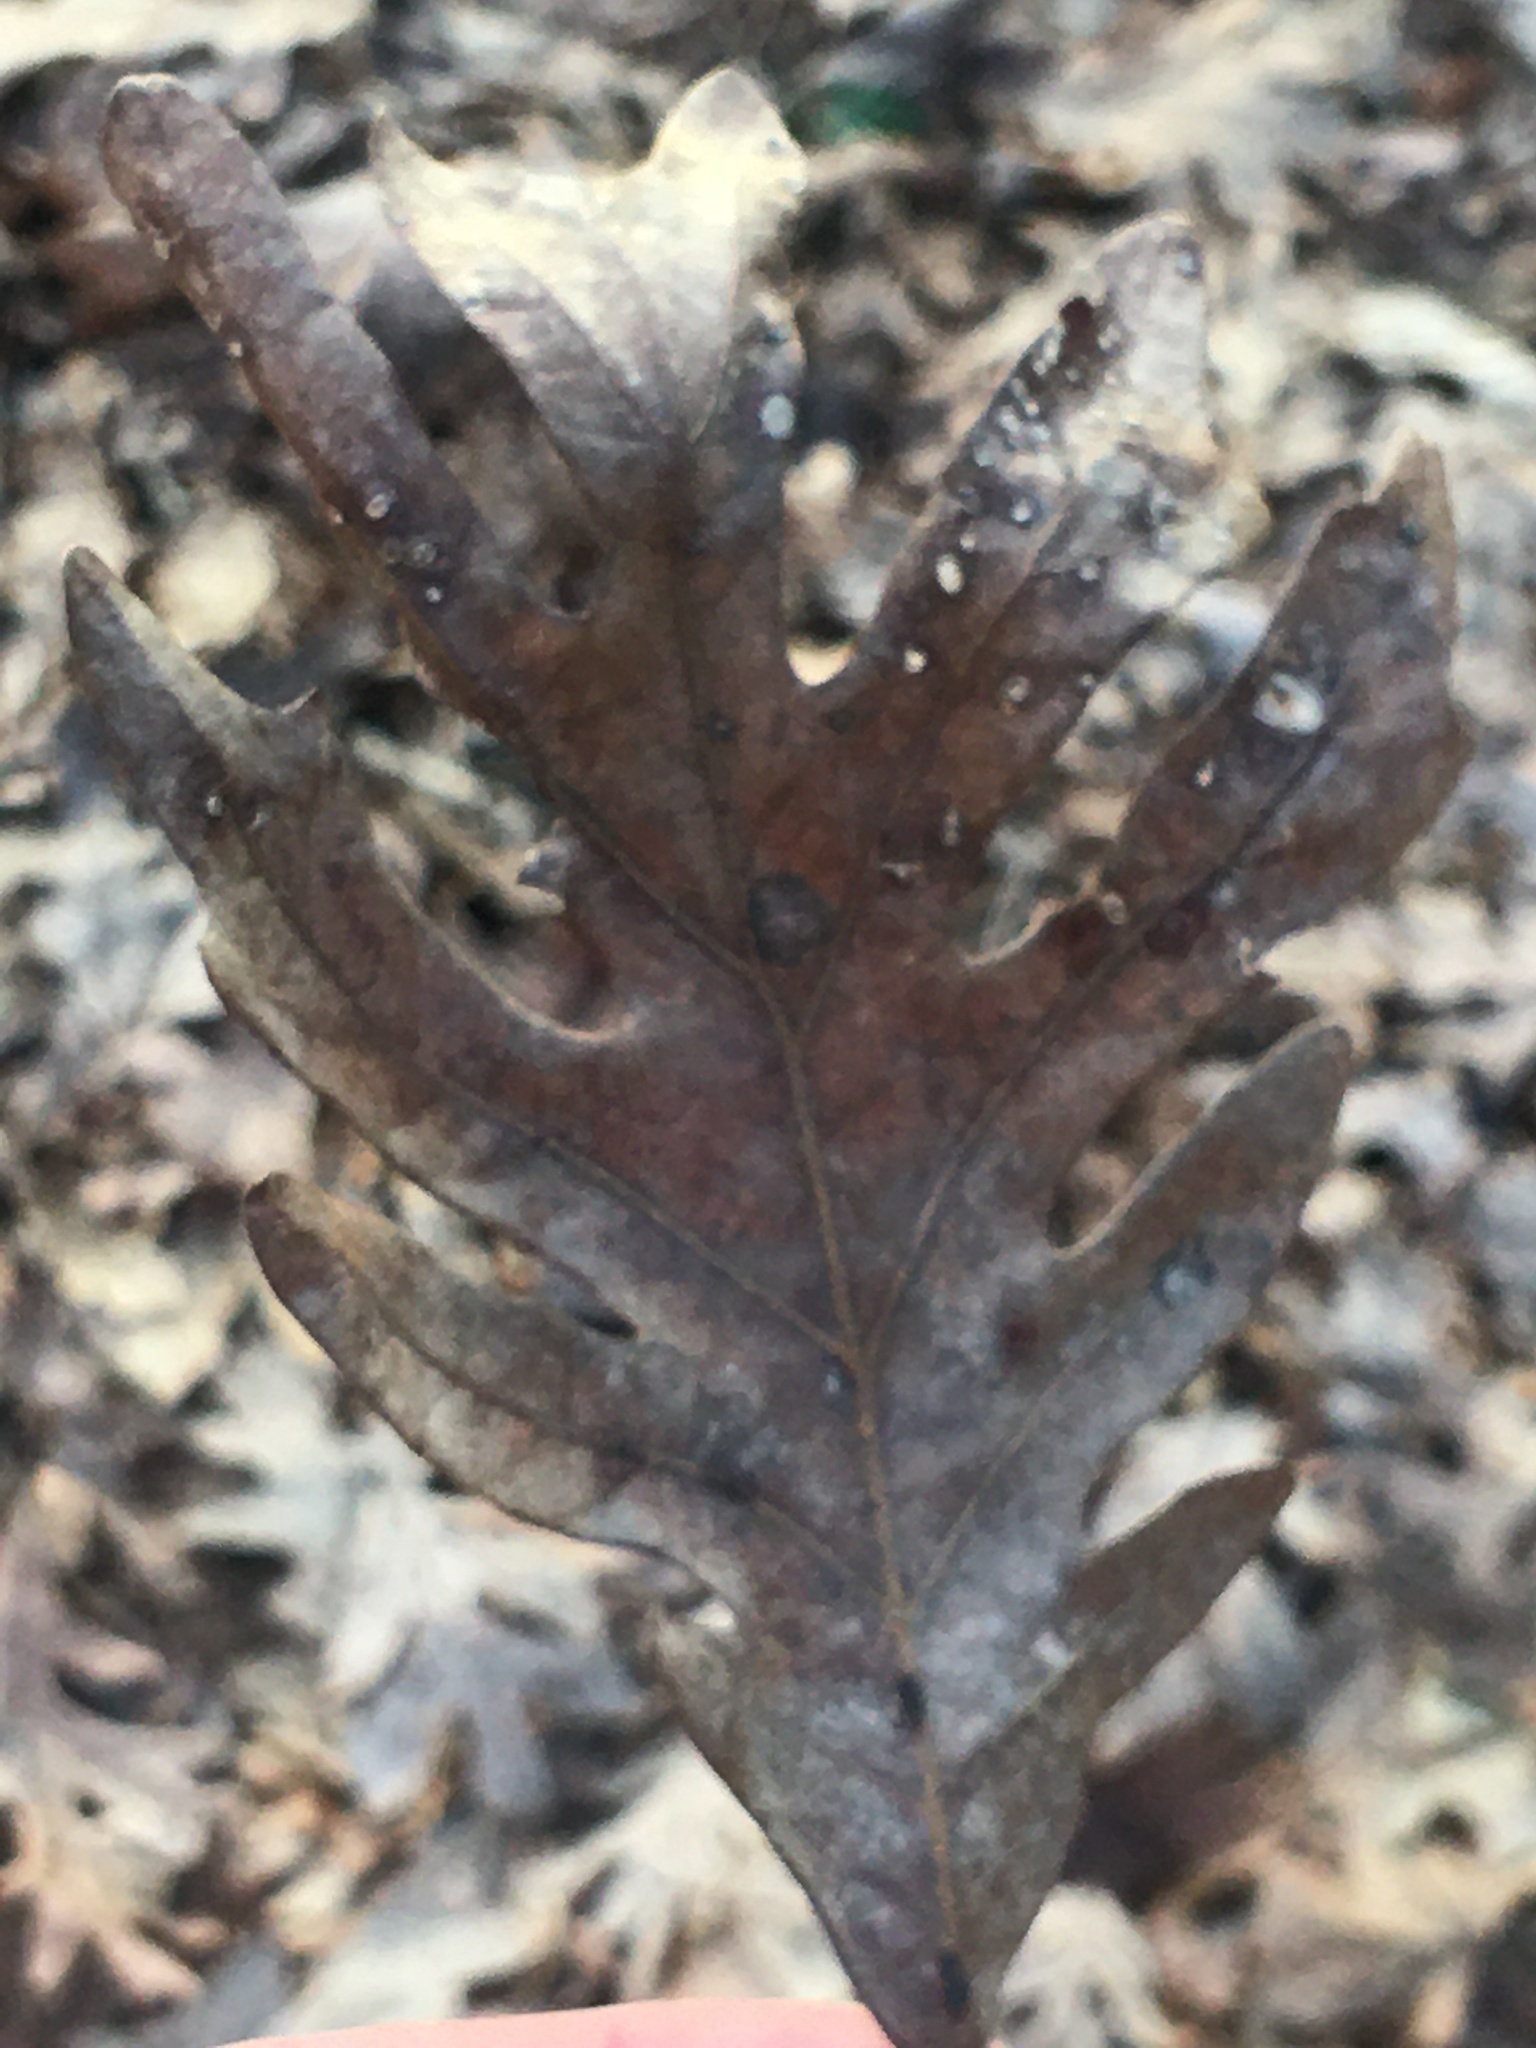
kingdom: Plantae
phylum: Tracheophyta
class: Magnoliopsida
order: Fagales
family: Fagaceae
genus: Quercus
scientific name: Quercus alba
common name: White oak
